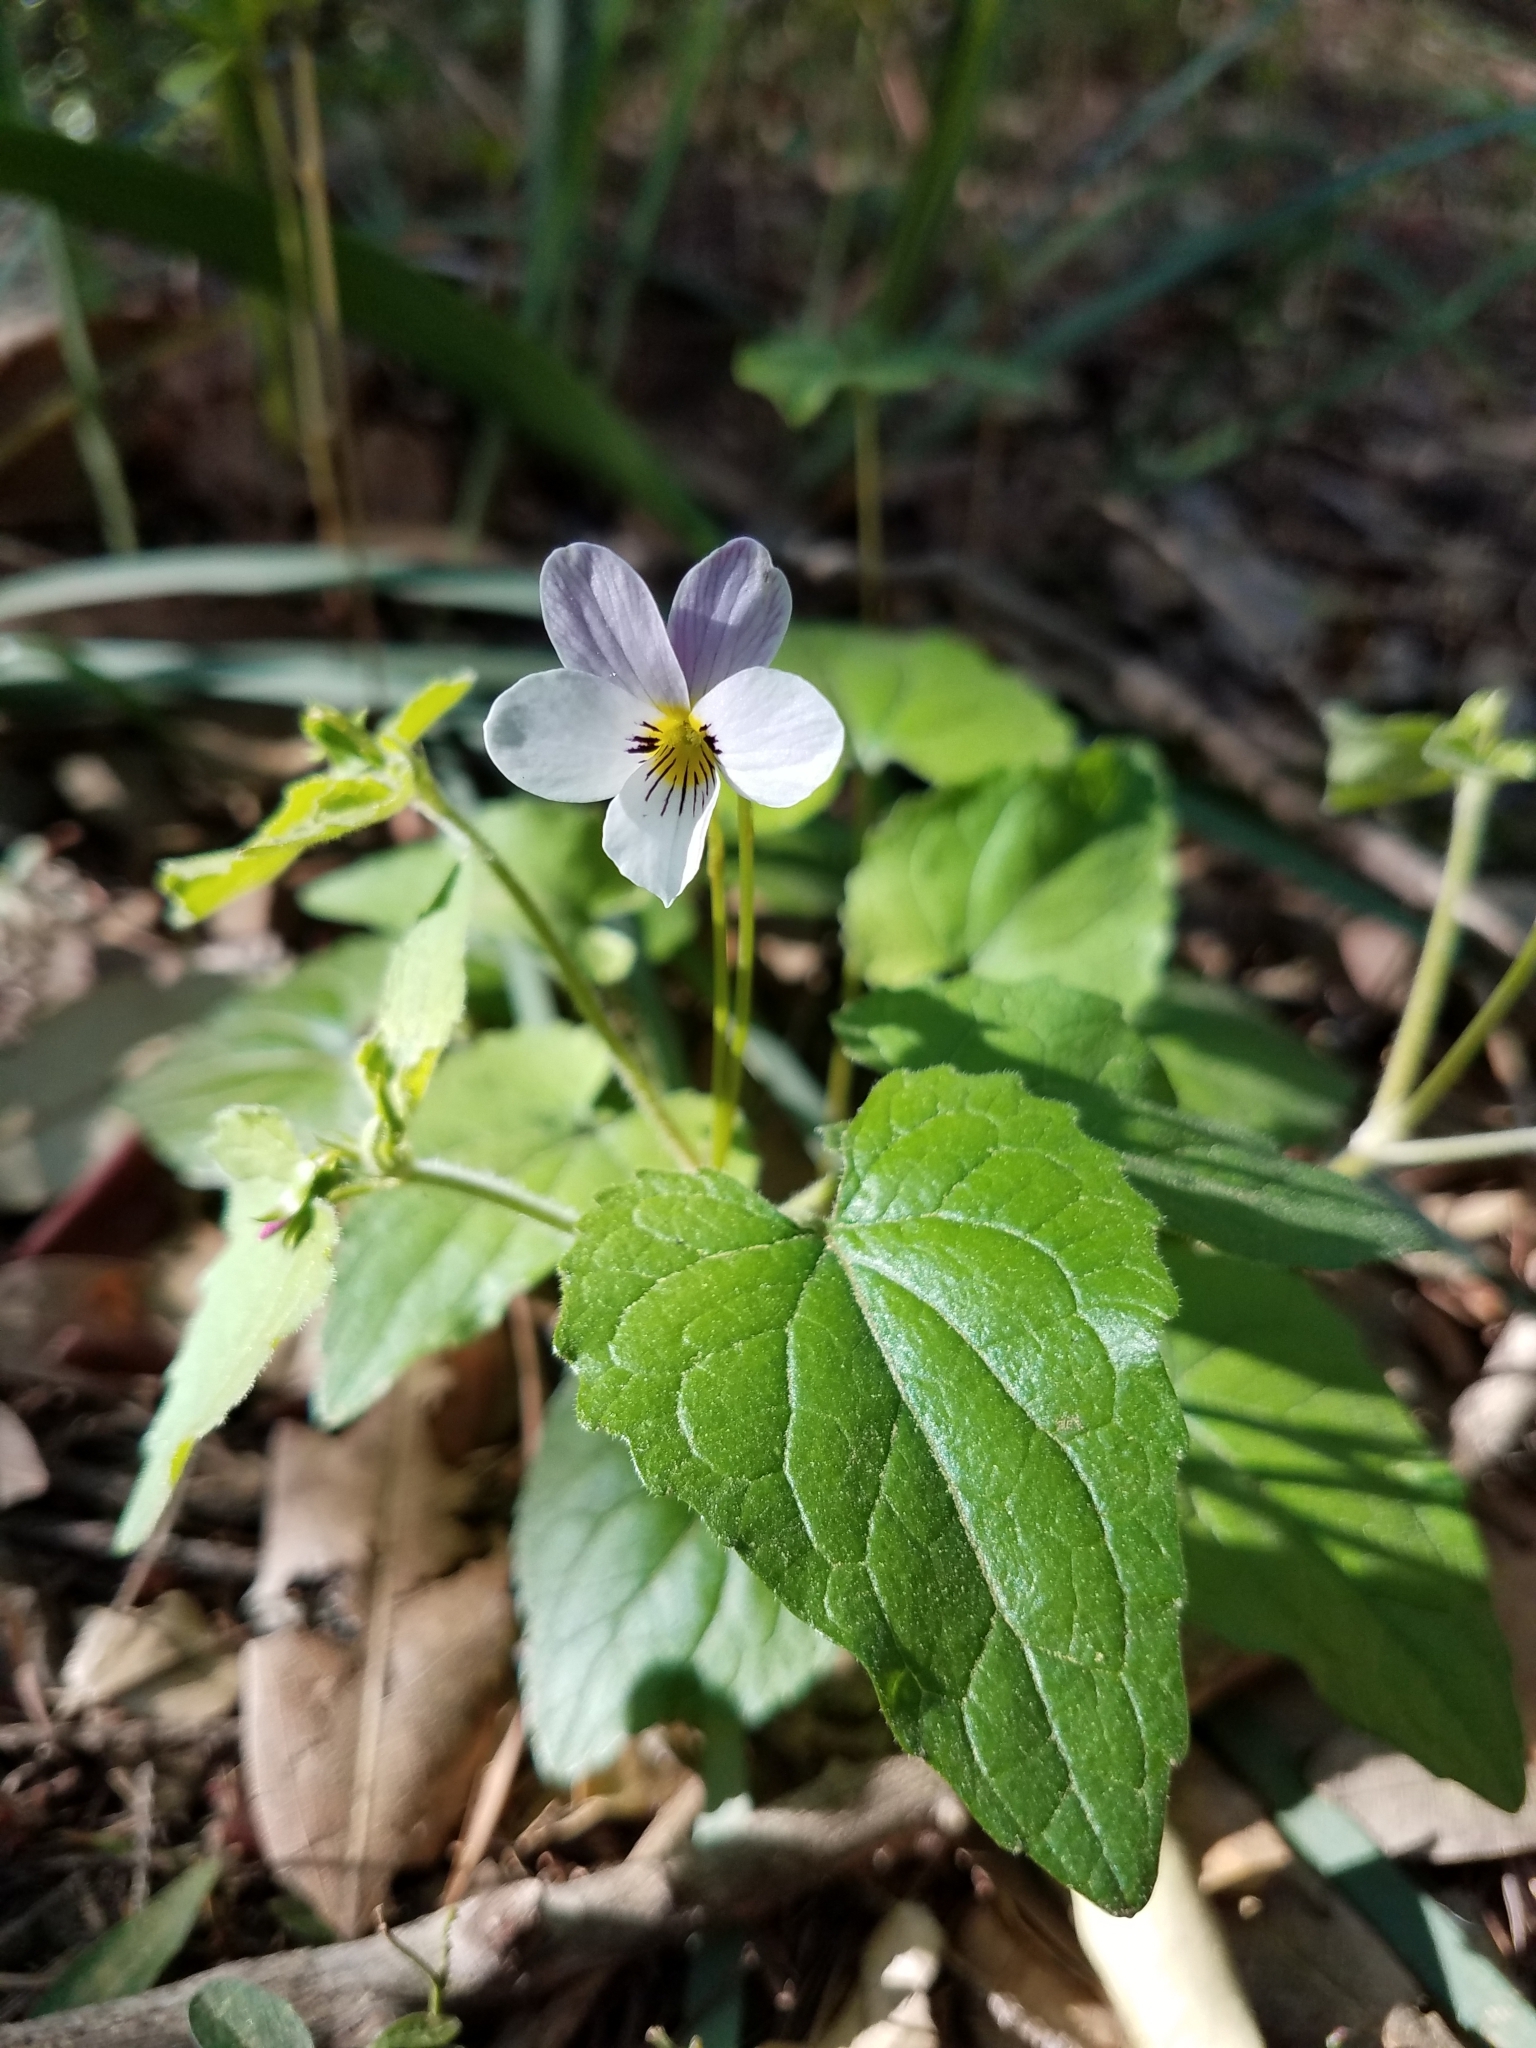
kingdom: Plantae
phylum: Tracheophyta
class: Magnoliopsida
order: Malpighiales
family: Violaceae
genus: Viola
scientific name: Viola ocellata
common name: Western heart's ease
